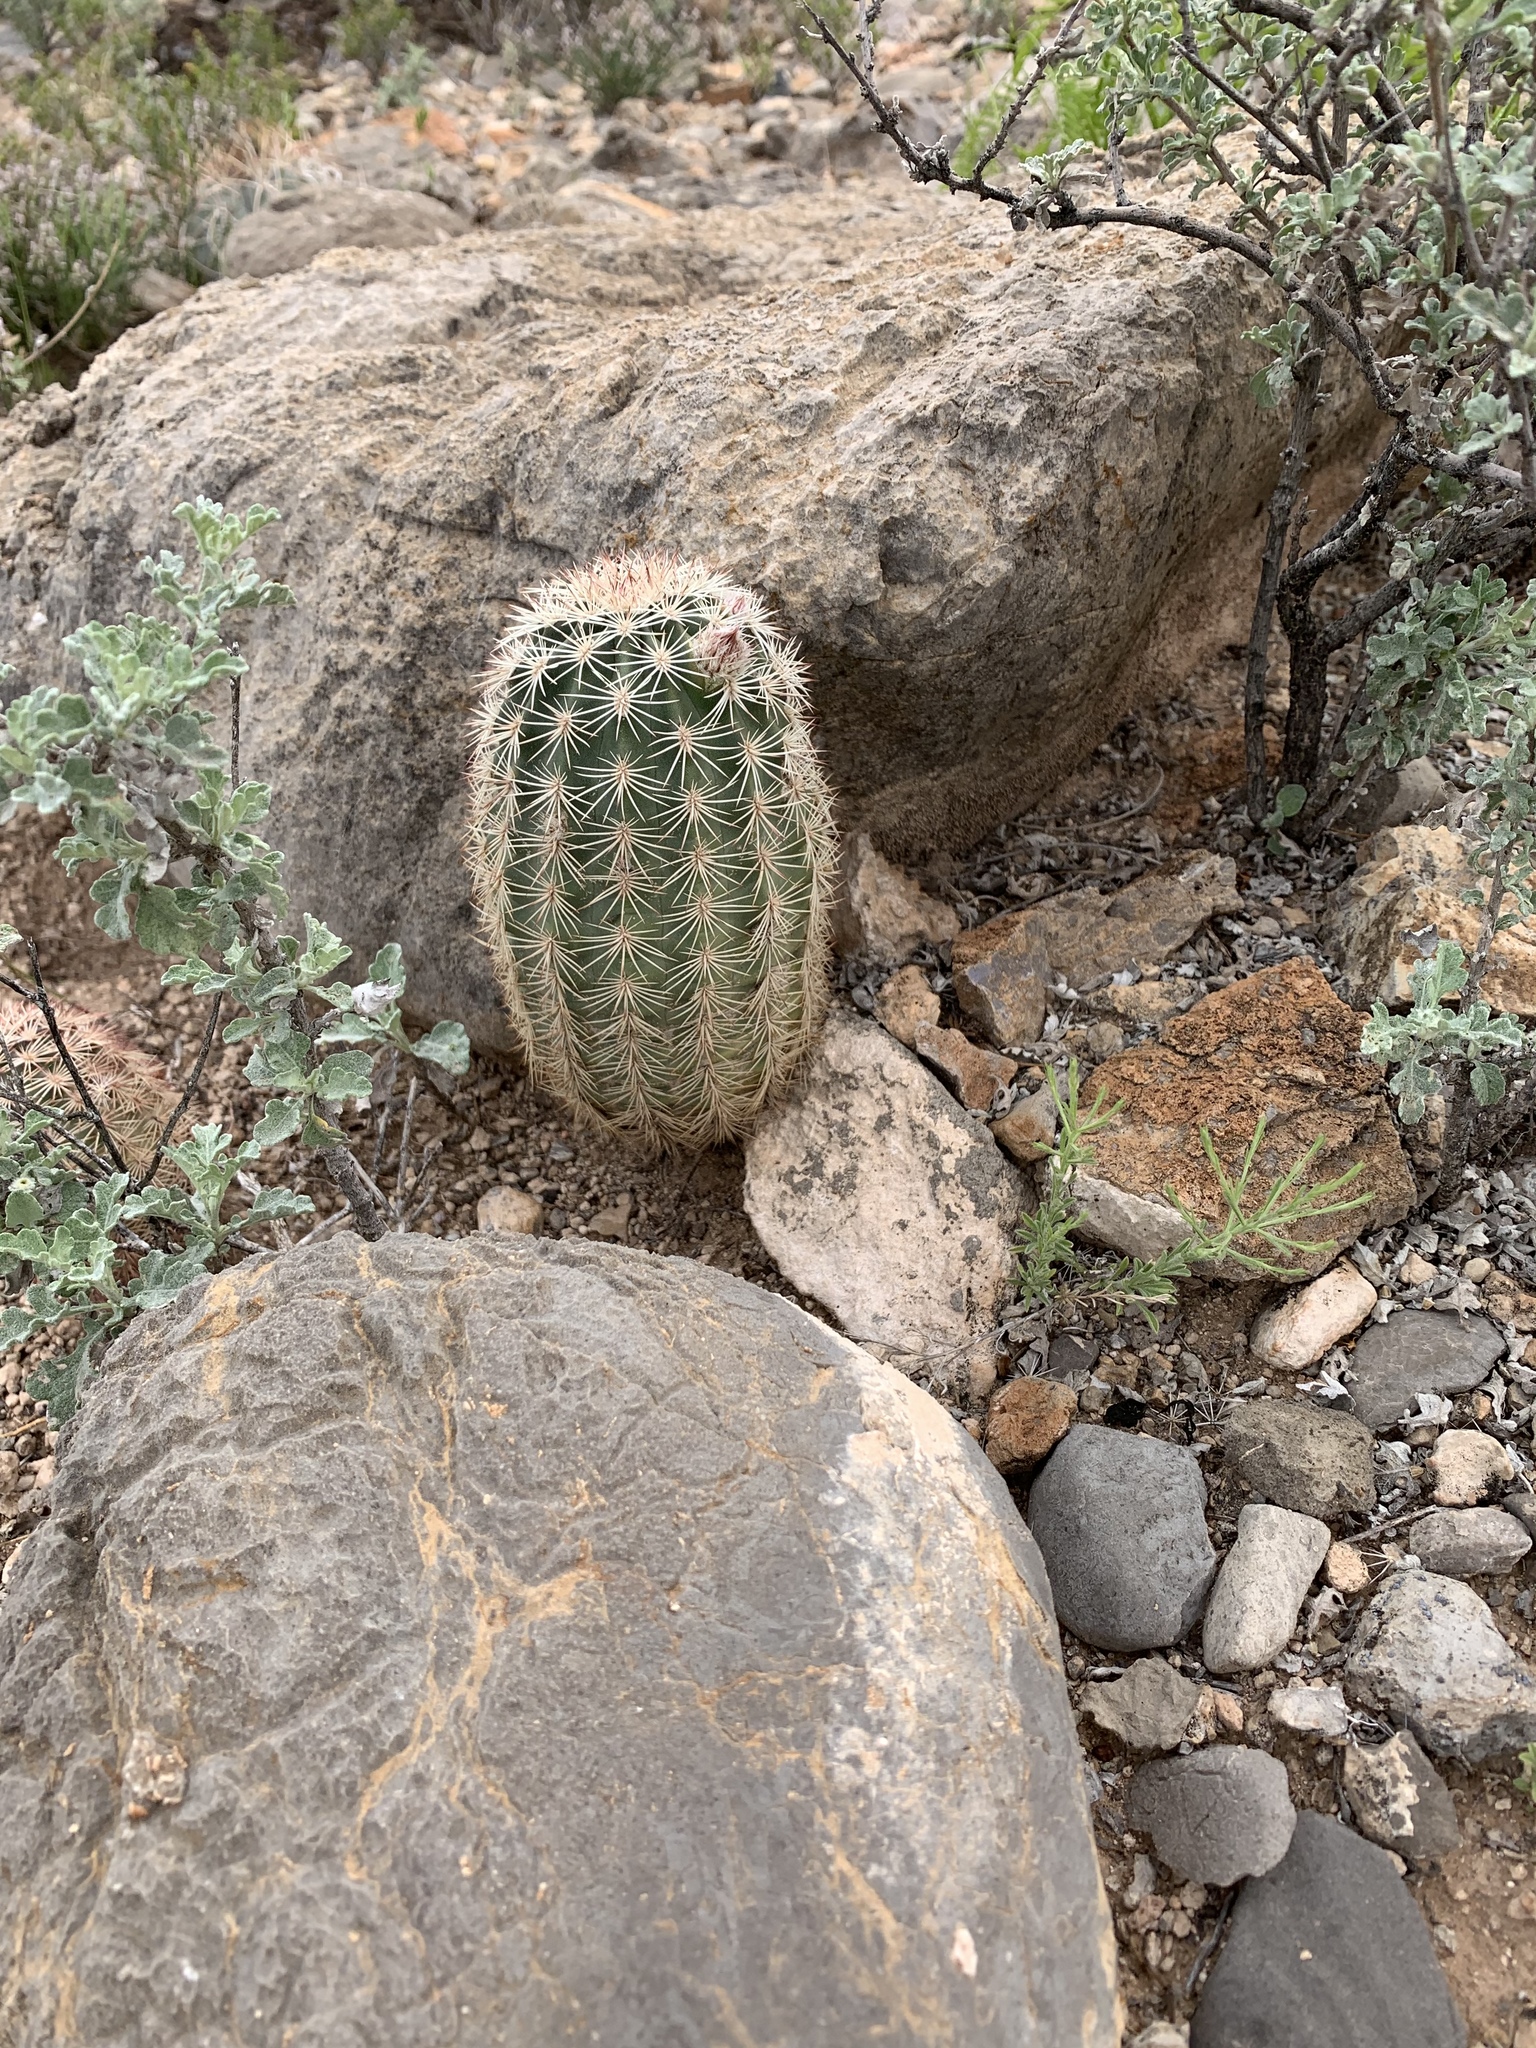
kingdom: Plantae
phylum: Tracheophyta
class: Magnoliopsida
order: Caryophyllales
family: Cactaceae
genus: Echinocereus
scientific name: Echinocereus dasyacanthus
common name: Spiny hedgehog cactus
